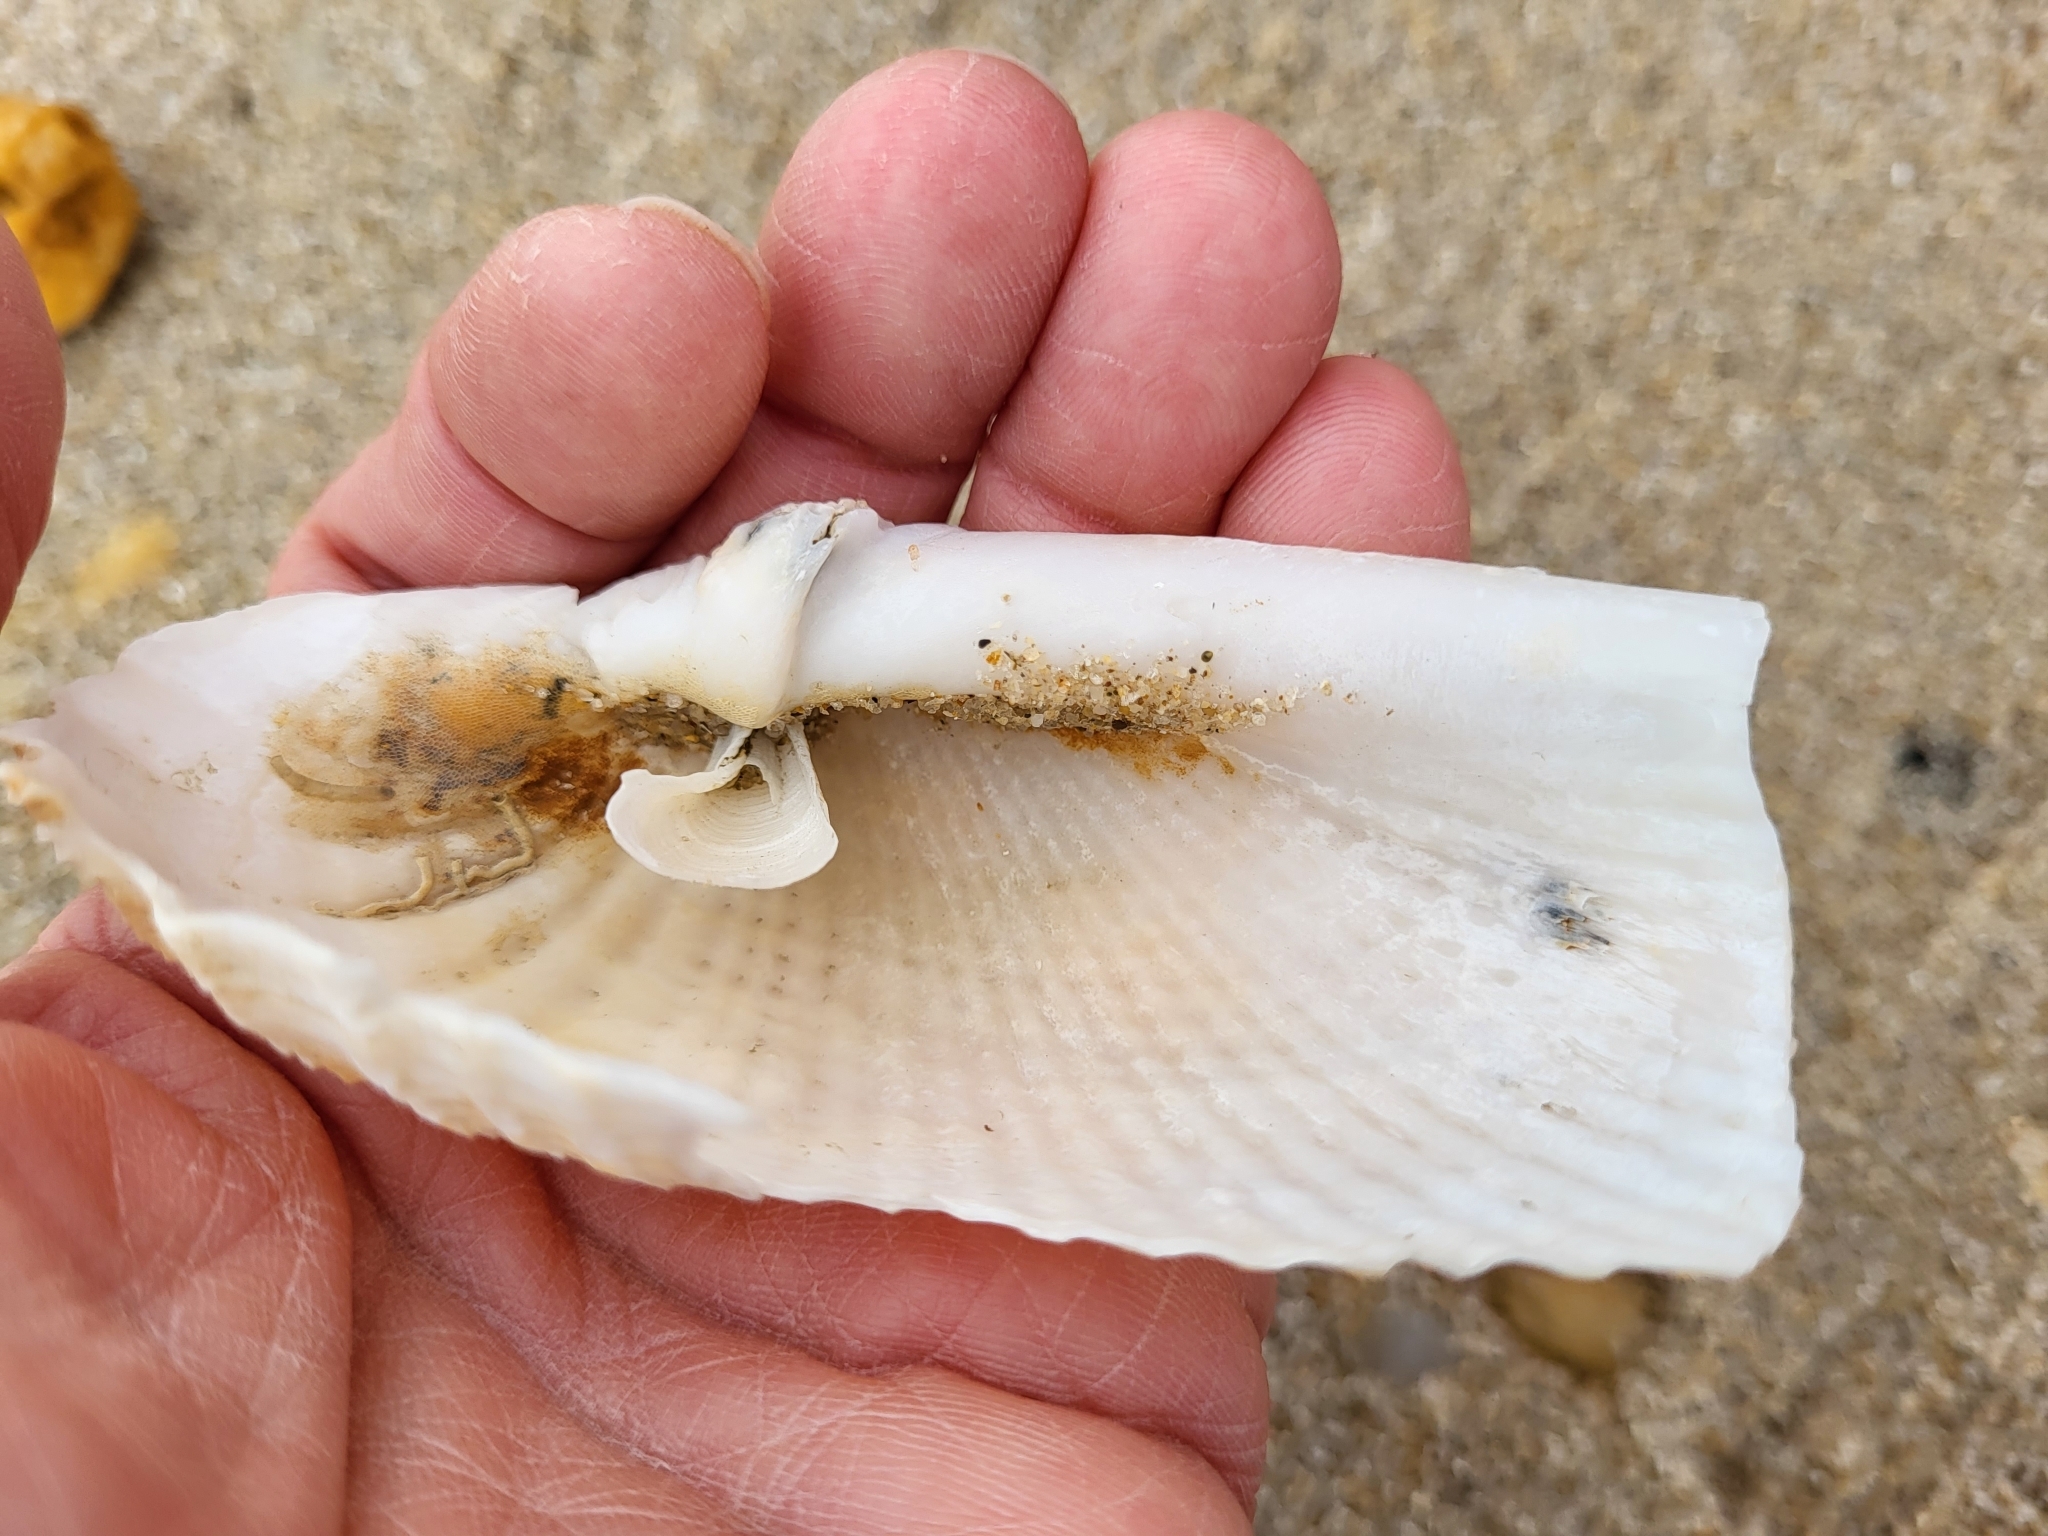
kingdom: Animalia
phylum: Mollusca
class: Bivalvia
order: Myida
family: Pholadidae
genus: Cyrtopleura
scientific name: Cyrtopleura costata
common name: Angel wing
